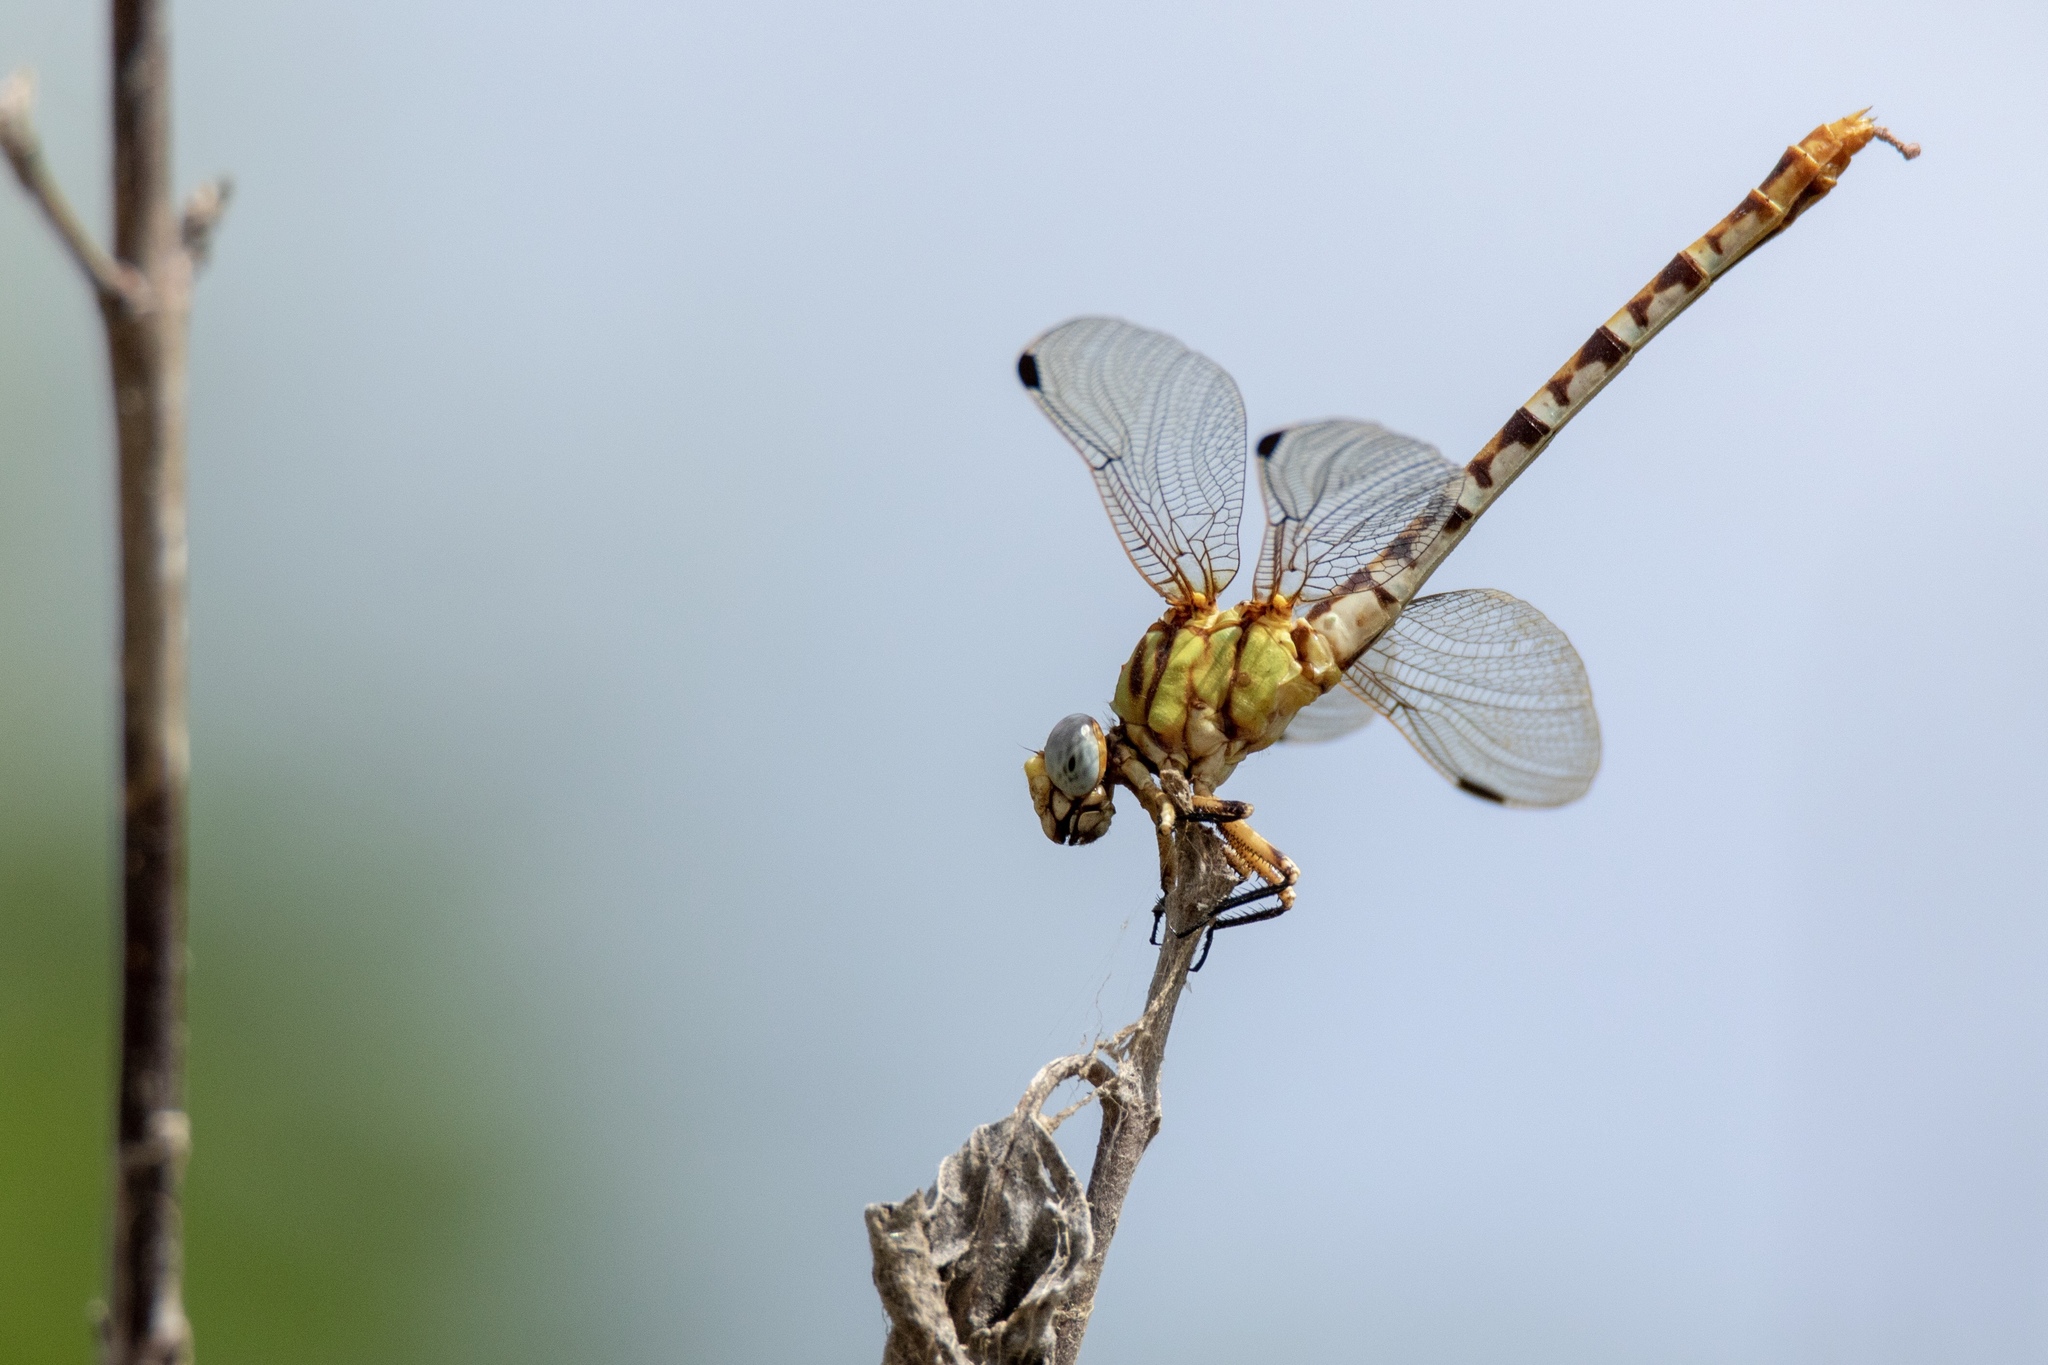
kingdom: Animalia
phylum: Arthropoda
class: Insecta
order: Odonata
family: Gomphidae
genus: Erpetogomphus
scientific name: Erpetogomphus designatus
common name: Eastern ringtail
